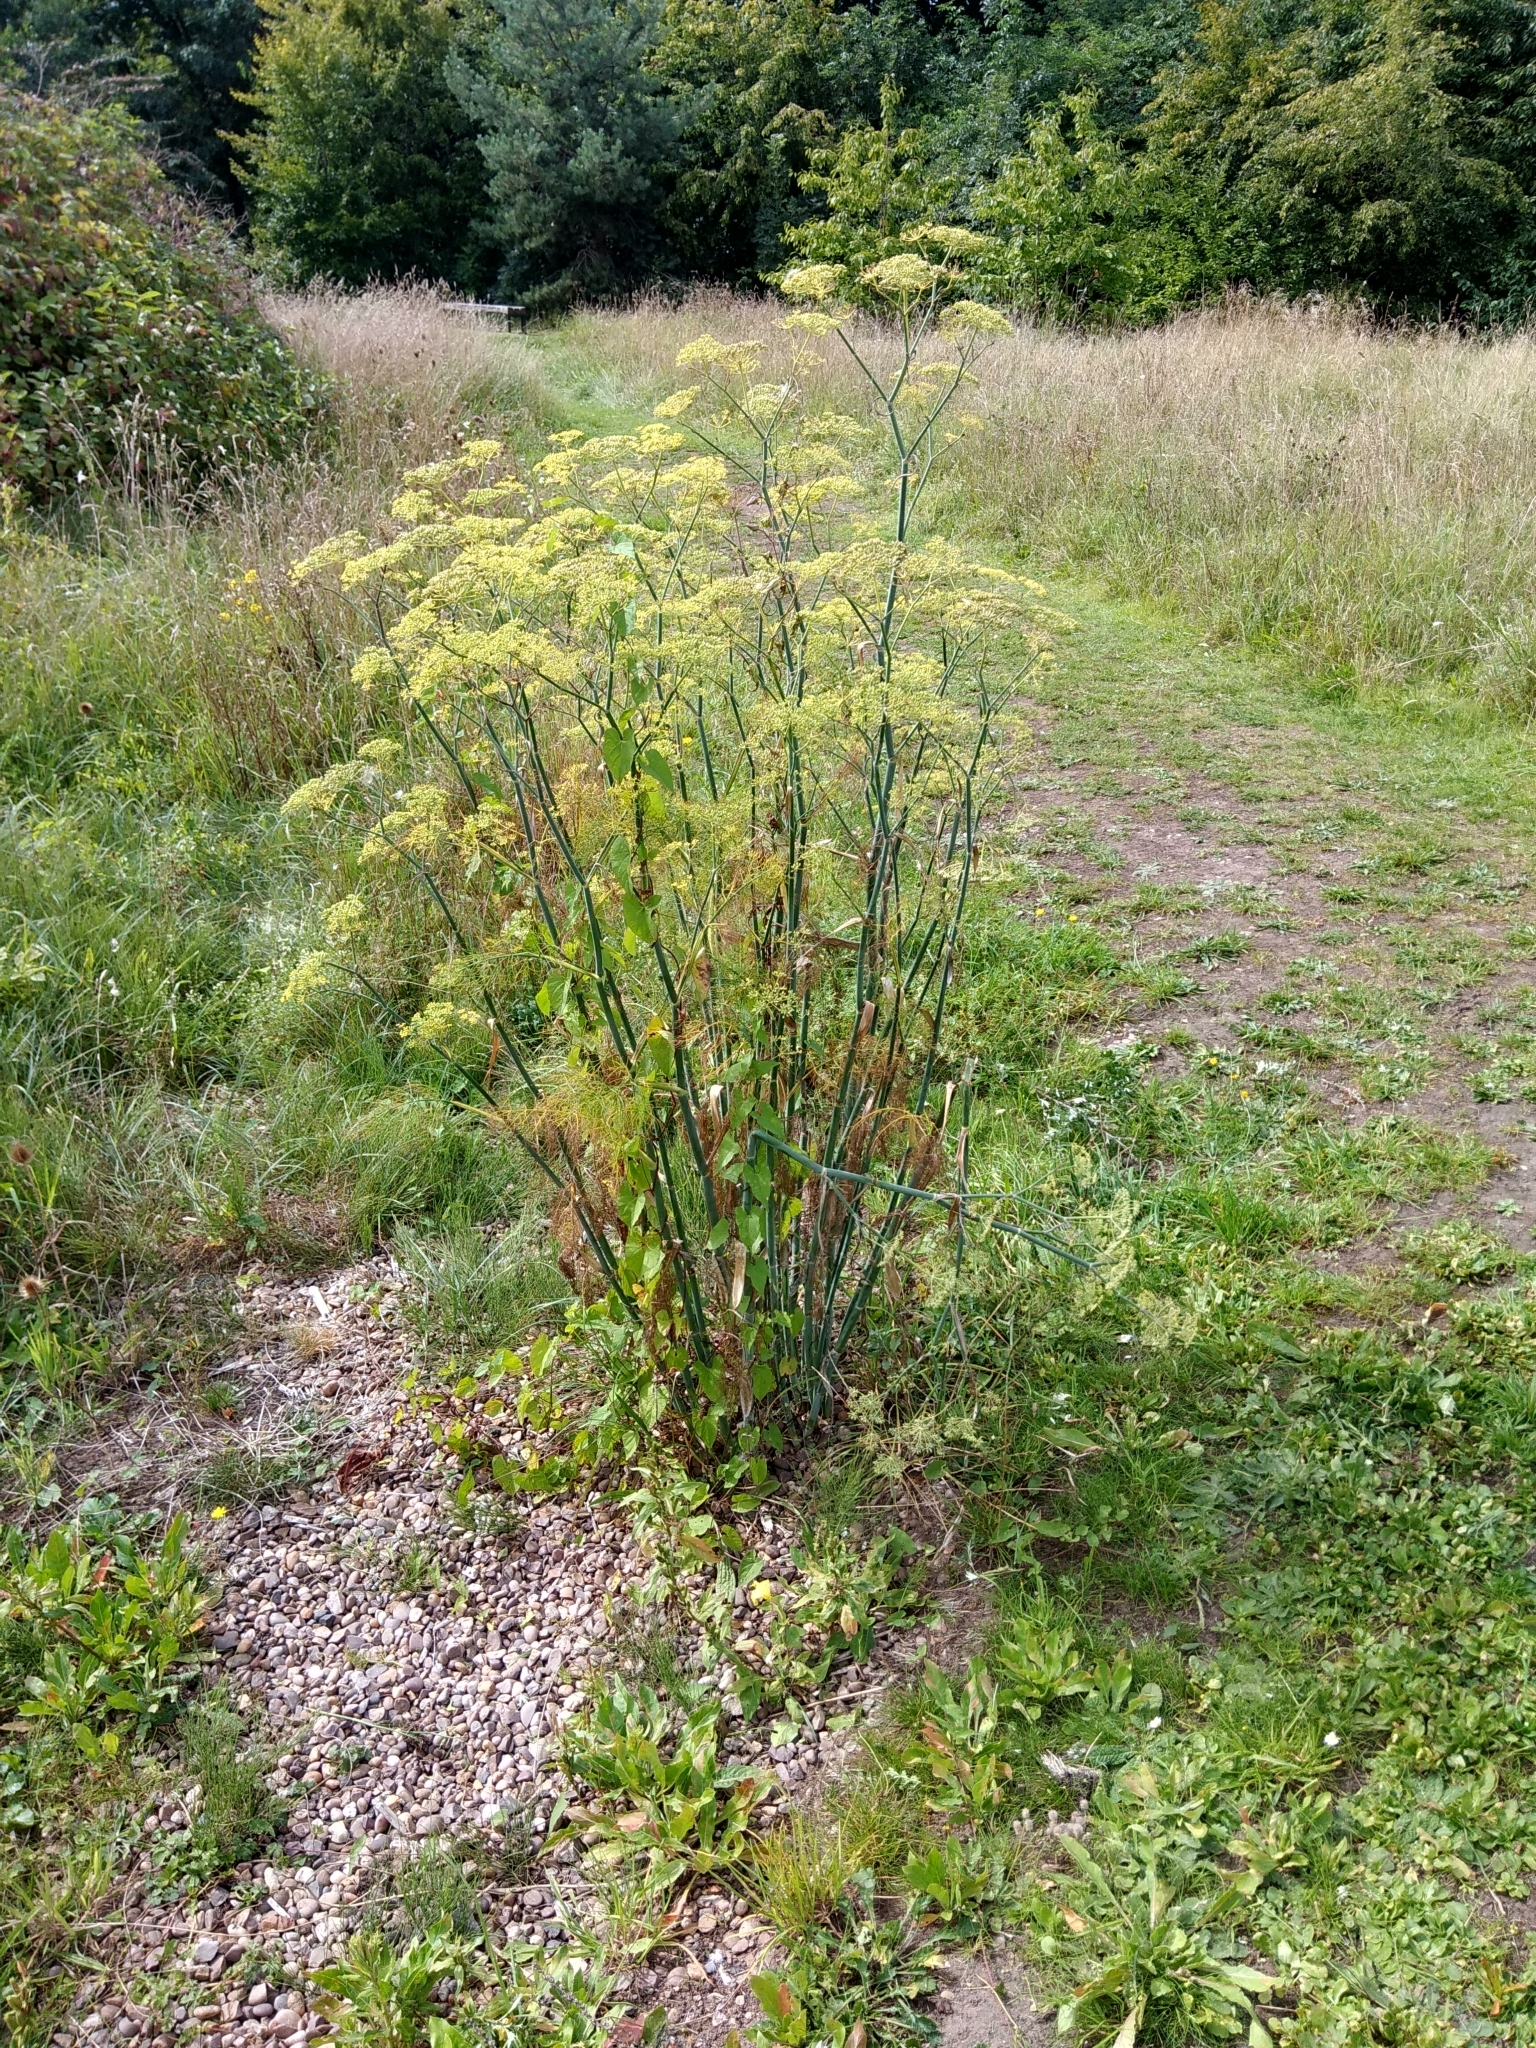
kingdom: Plantae
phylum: Tracheophyta
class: Magnoliopsida
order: Apiales
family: Apiaceae
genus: Foeniculum
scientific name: Foeniculum vulgare
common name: Fennel
